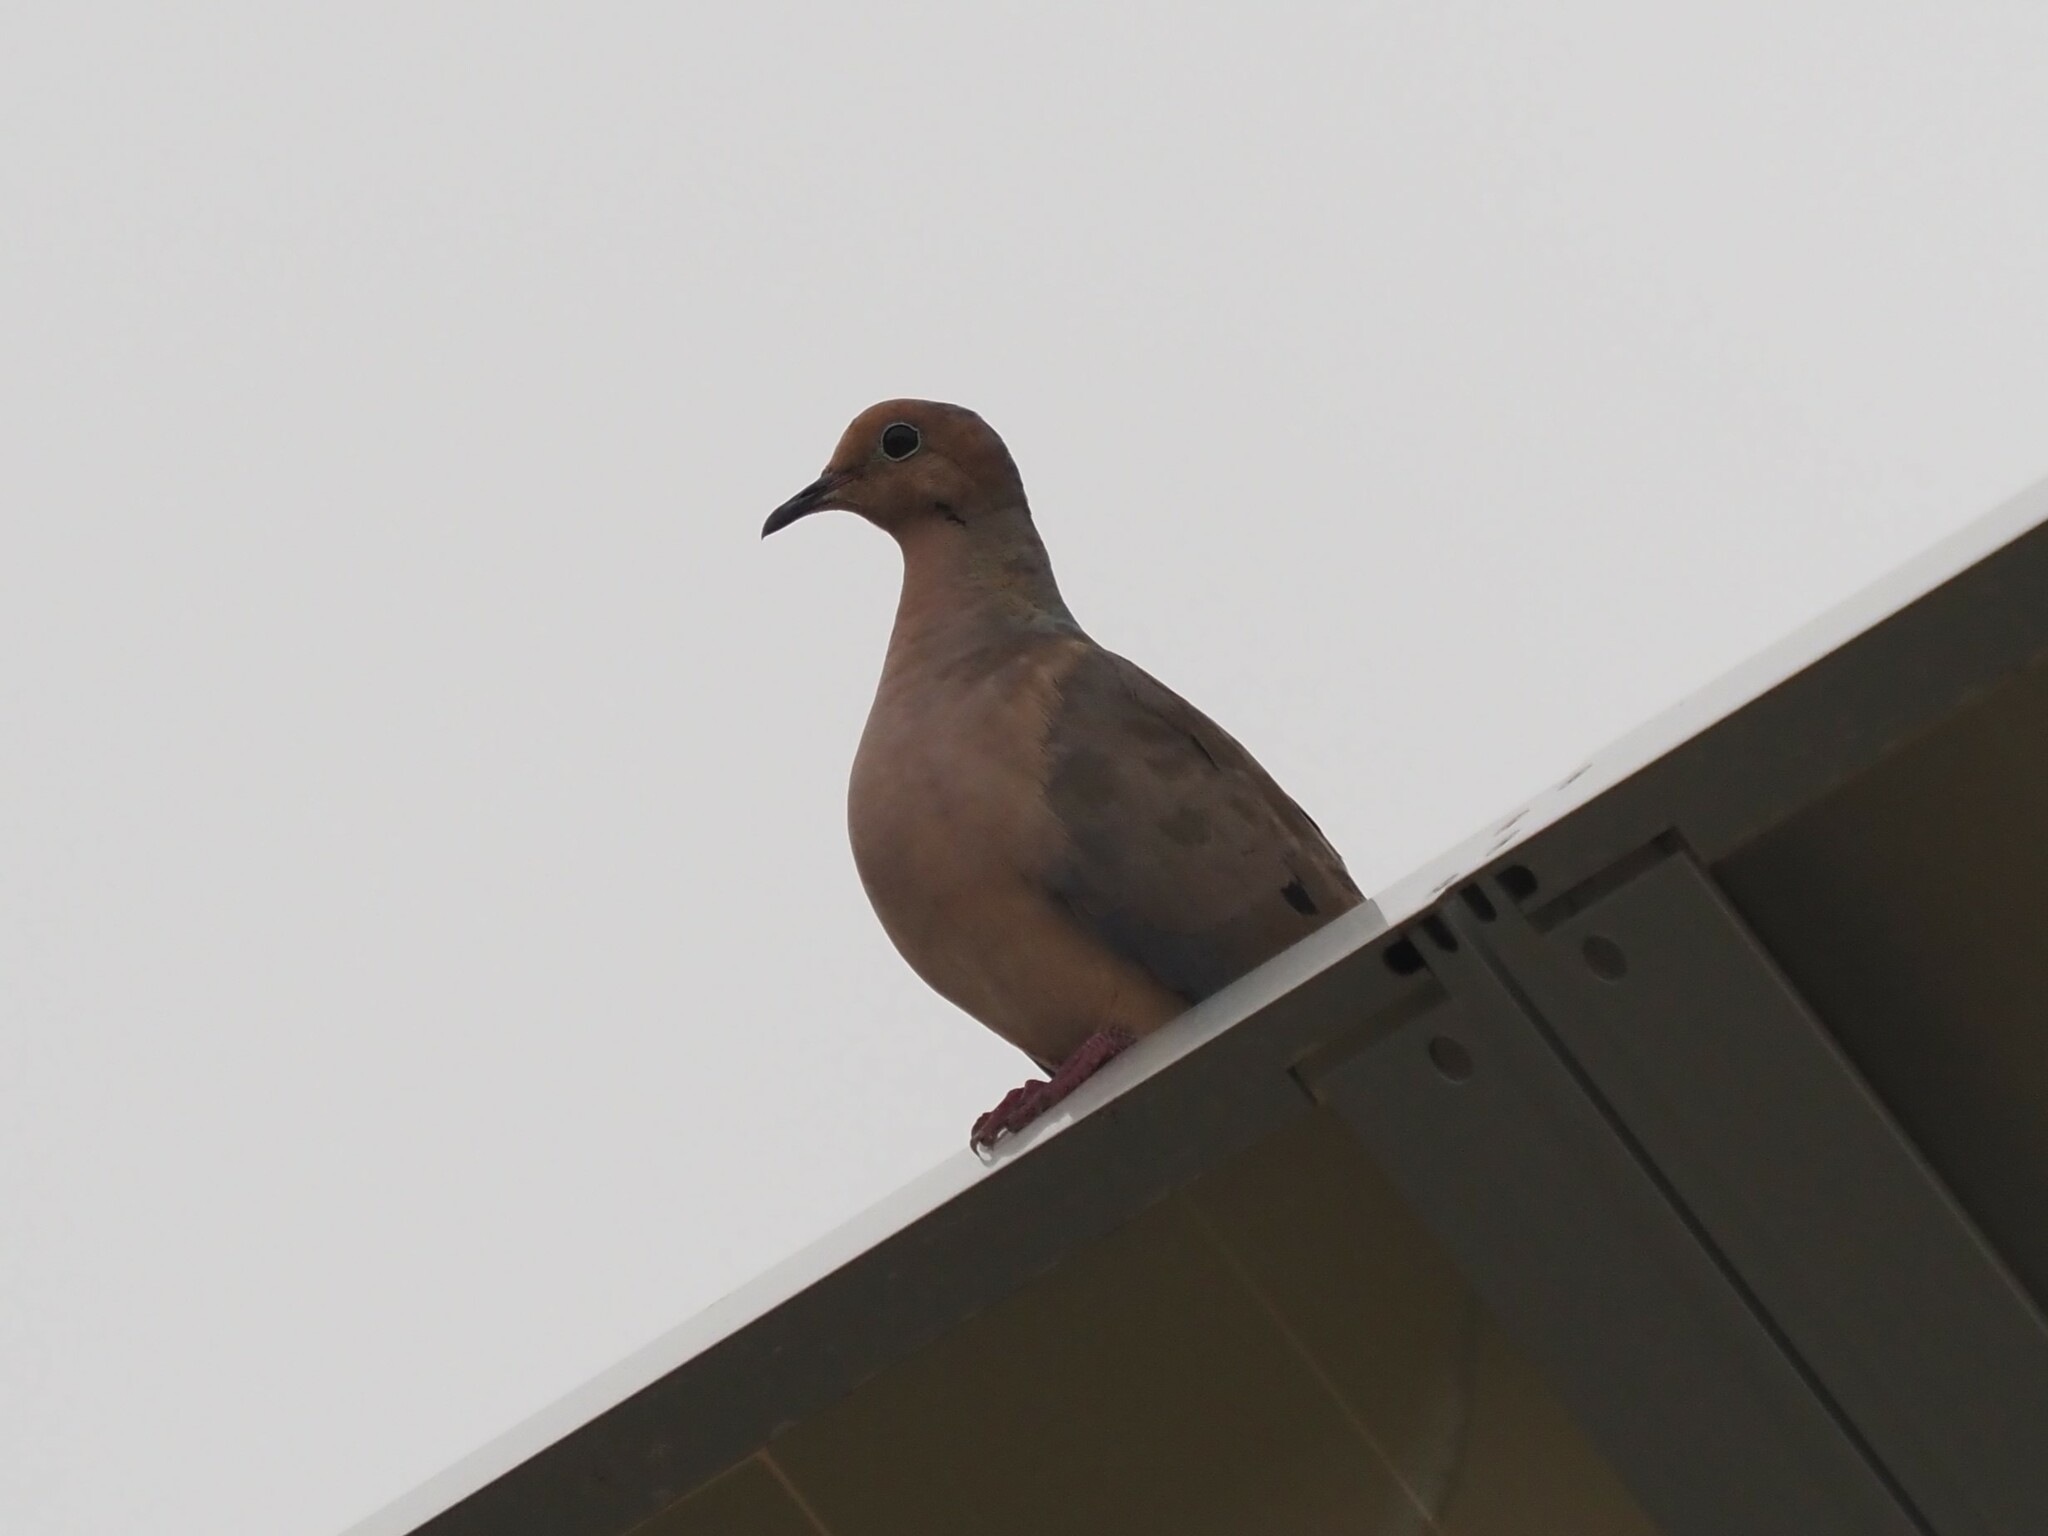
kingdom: Animalia
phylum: Chordata
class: Aves
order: Columbiformes
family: Columbidae
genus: Zenaida
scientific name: Zenaida macroura
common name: Mourning dove
